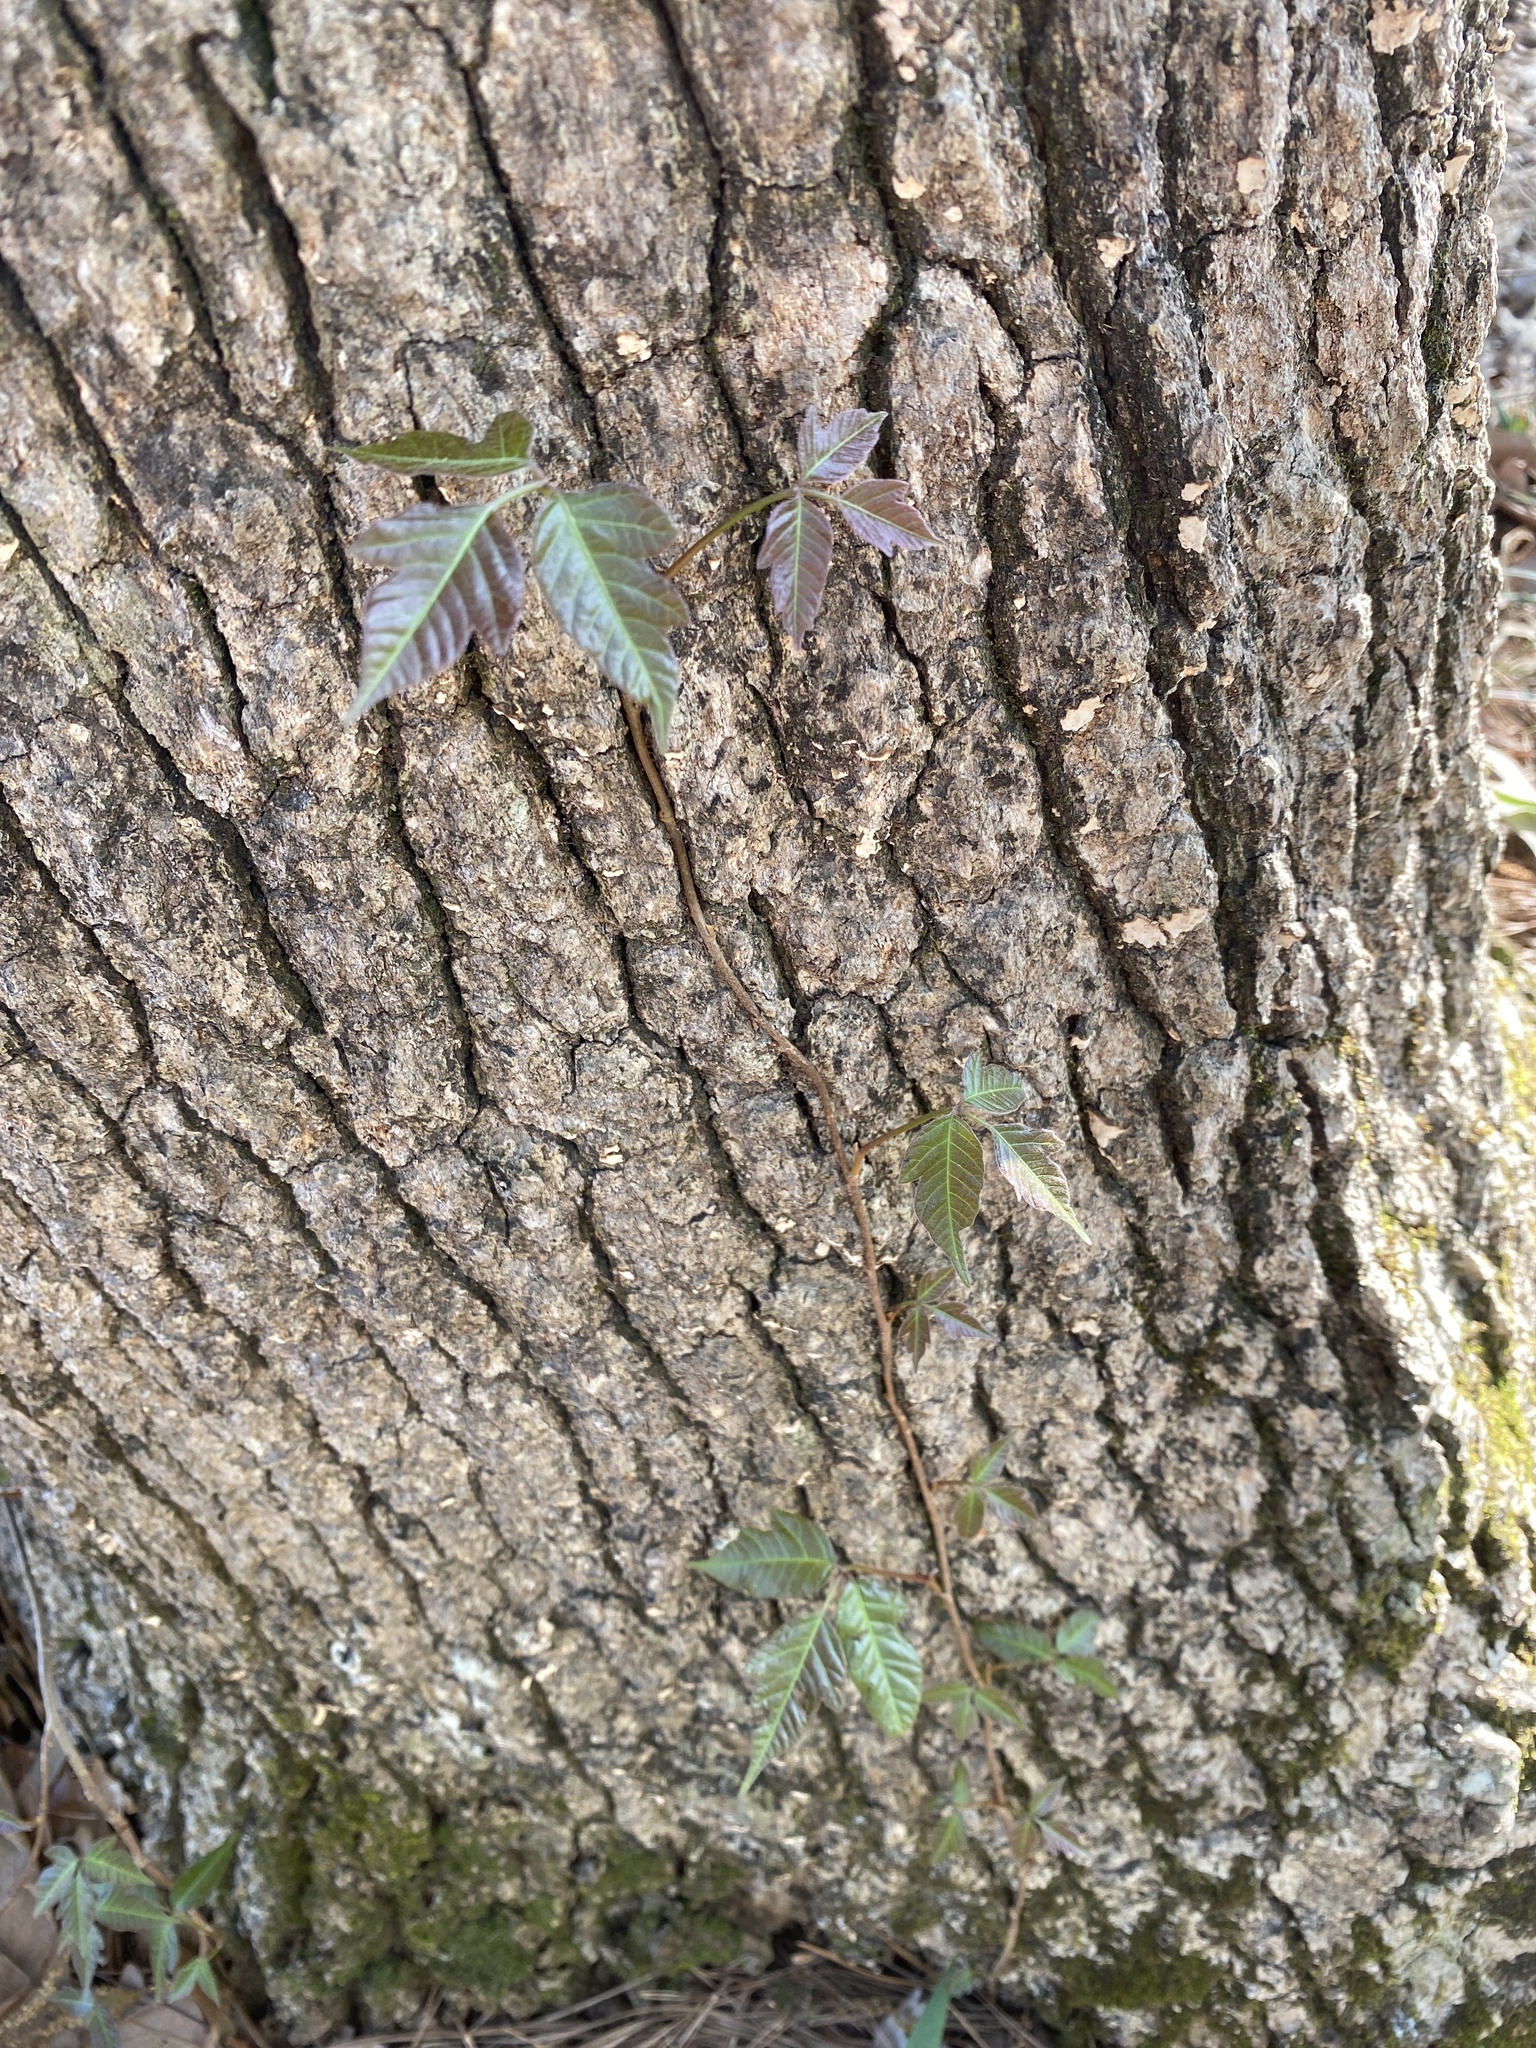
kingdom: Plantae
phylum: Tracheophyta
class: Magnoliopsida
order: Sapindales
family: Anacardiaceae
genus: Toxicodendron
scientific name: Toxicodendron radicans
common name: Poison ivy
